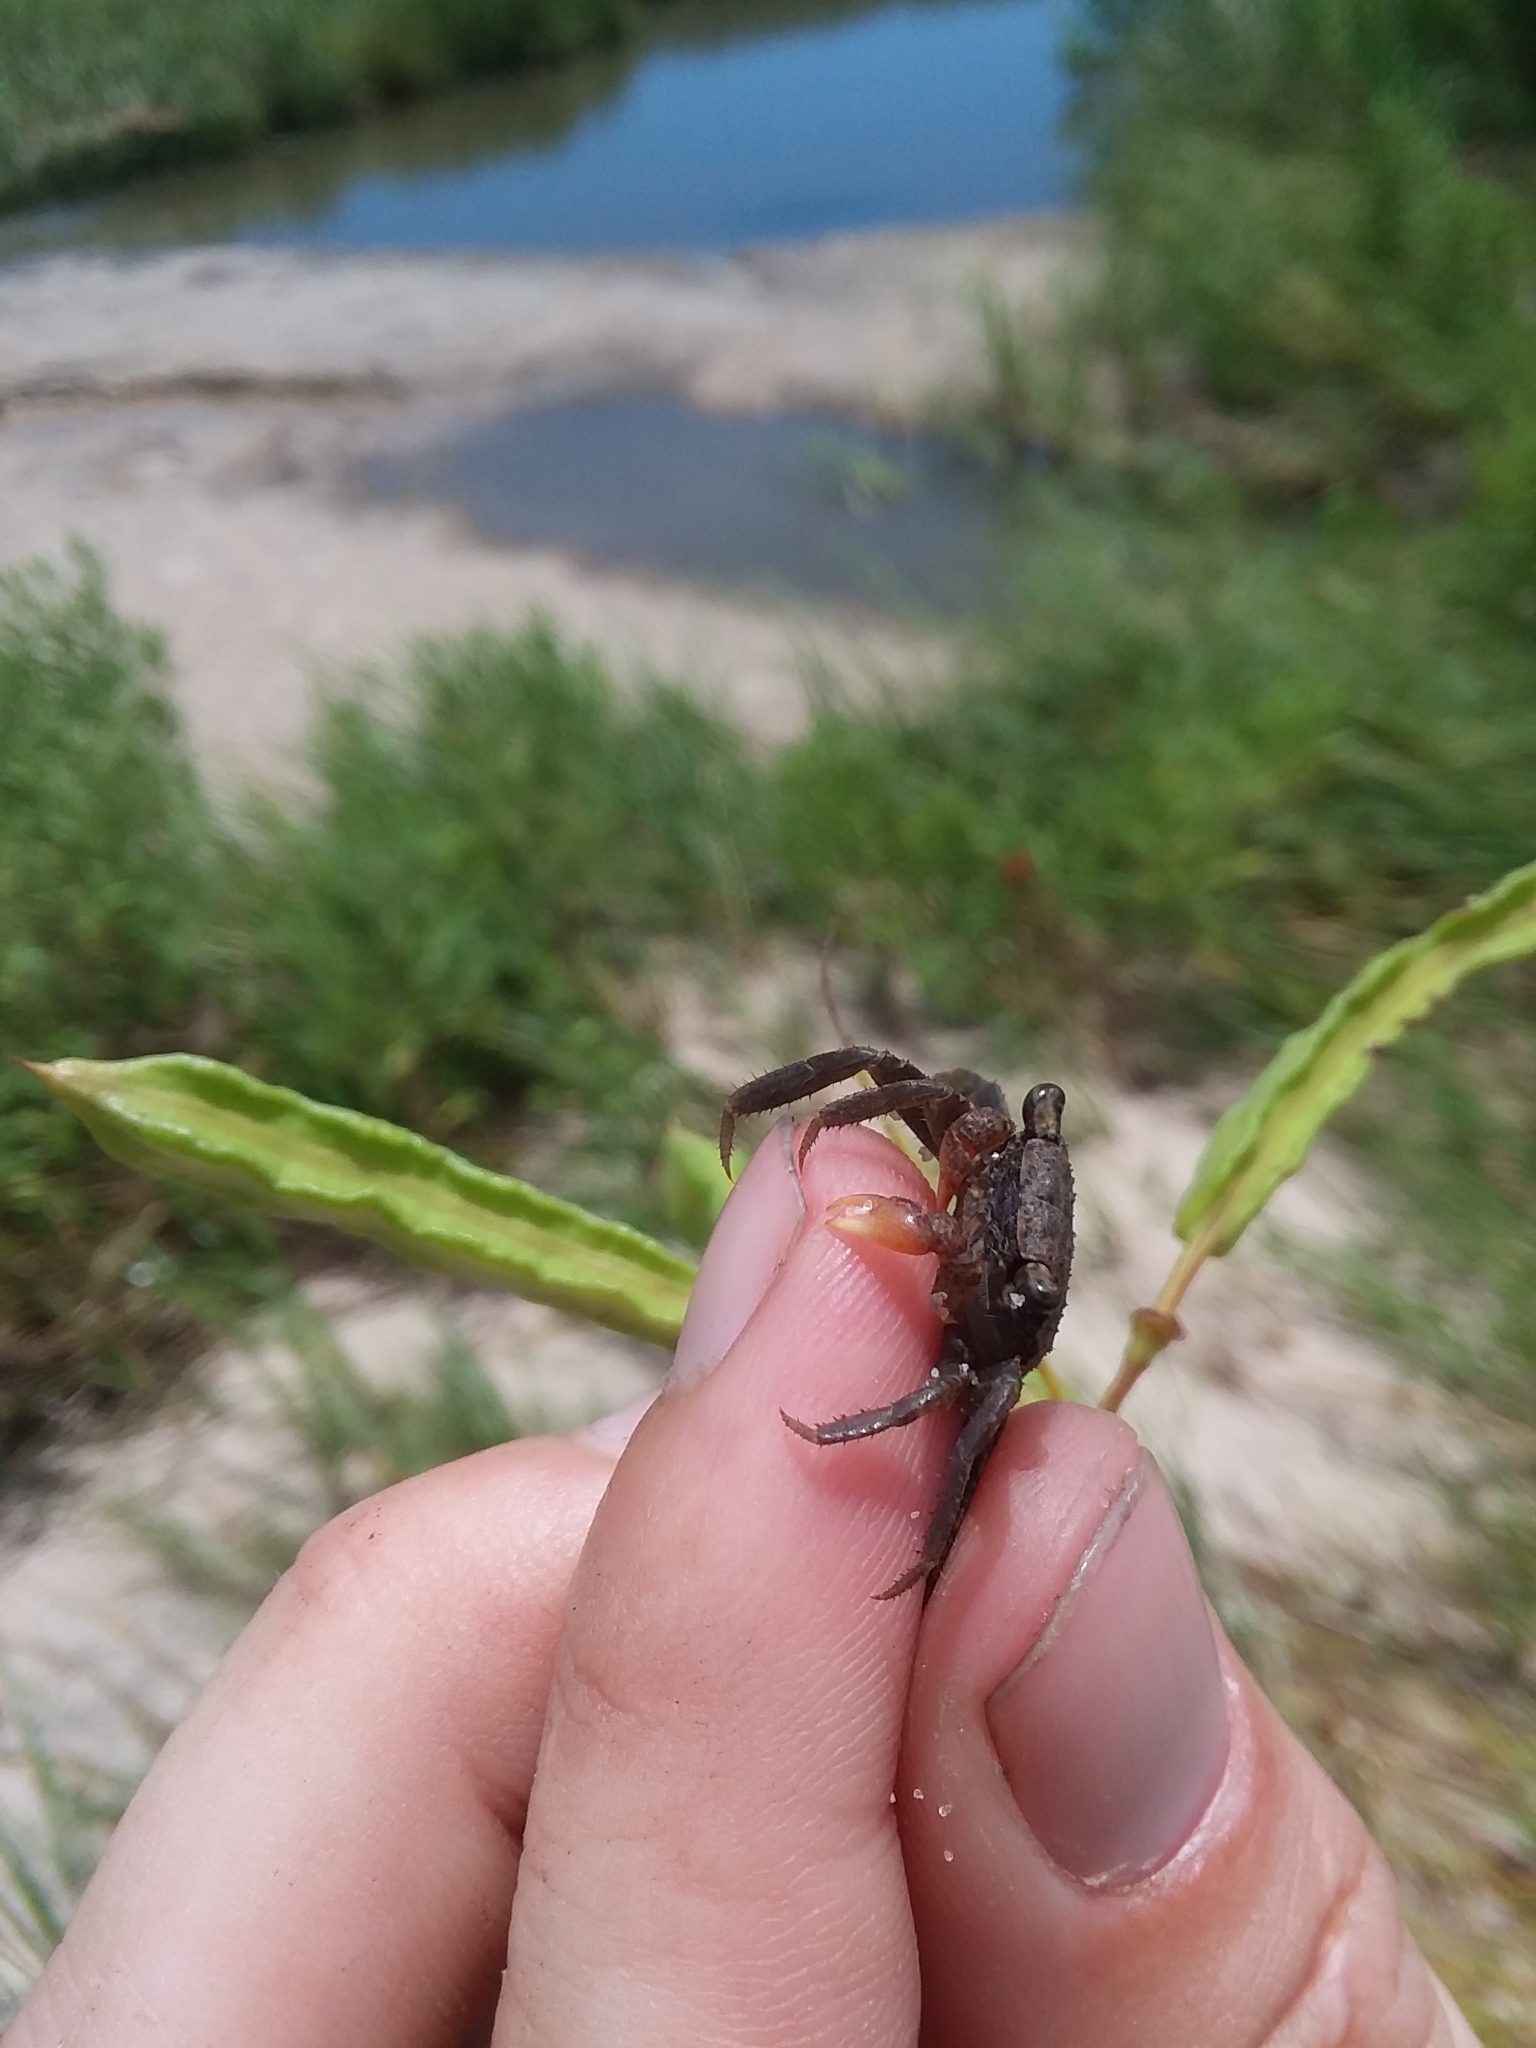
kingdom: Animalia
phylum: Arthropoda
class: Malacostraca
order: Decapoda
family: Sesarmidae
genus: Armases
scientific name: Armases cinereum
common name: Squareback marsh crab
